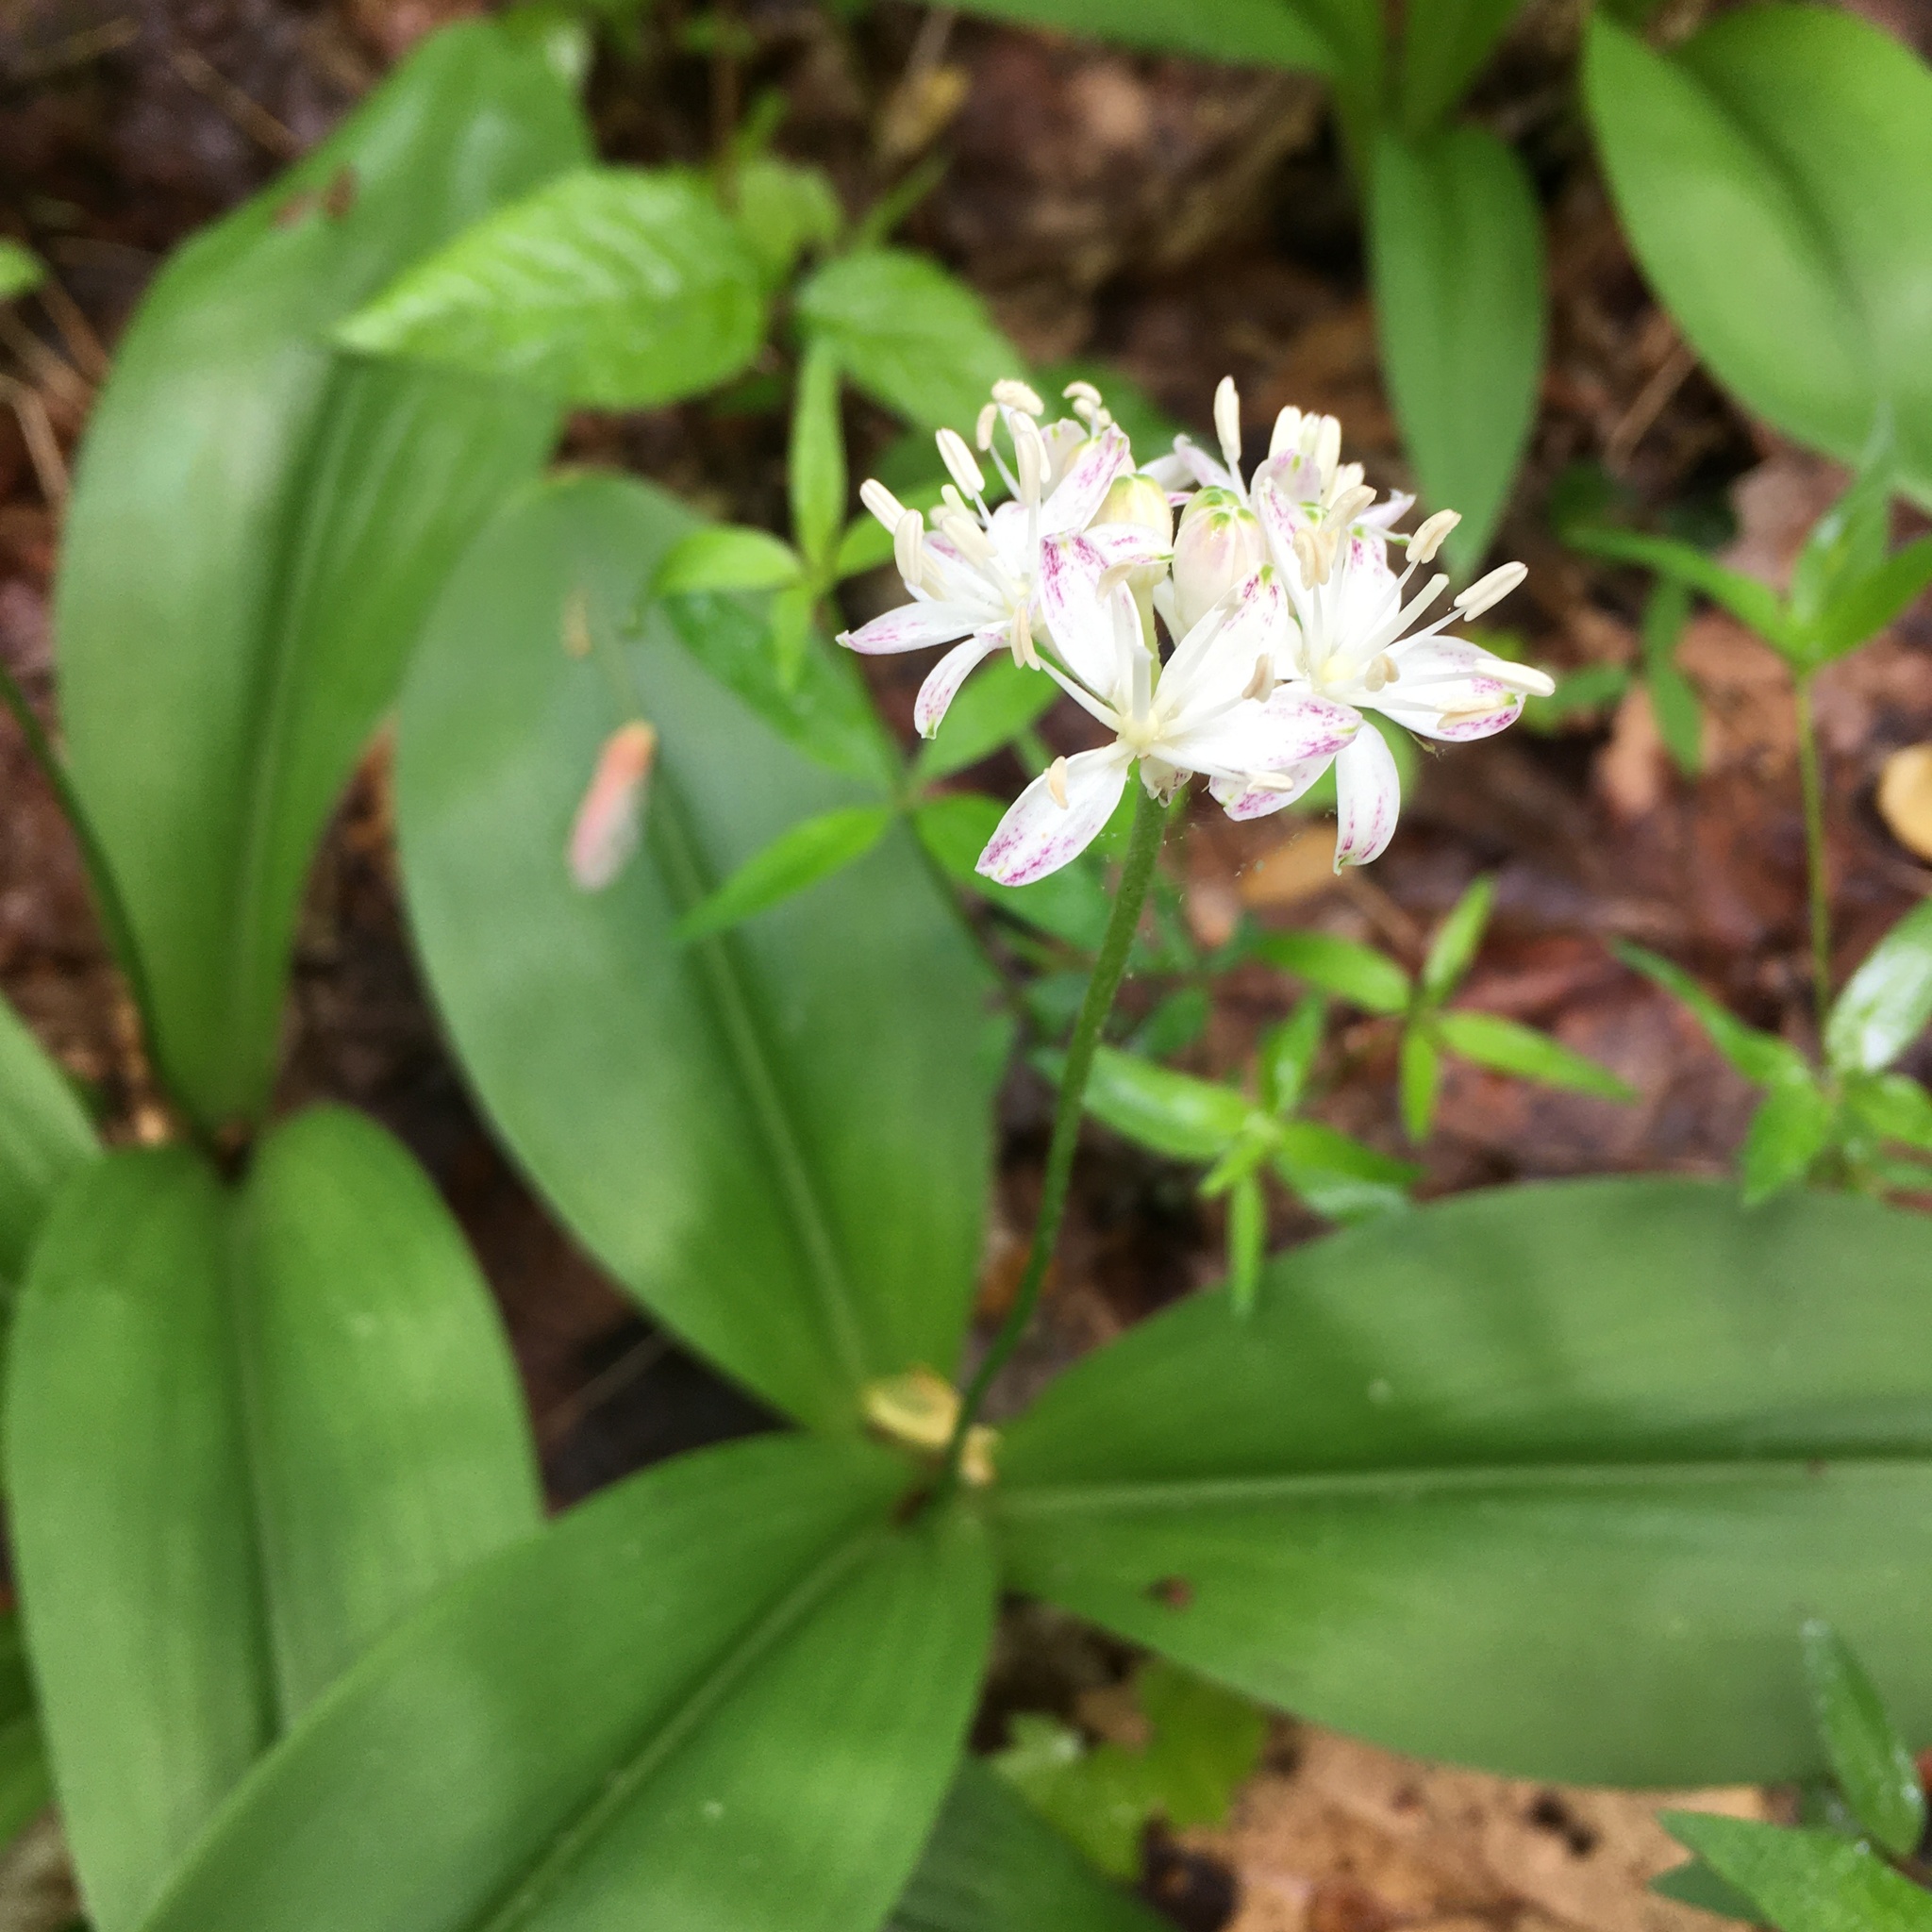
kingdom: Plantae
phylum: Tracheophyta
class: Liliopsida
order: Liliales
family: Liliaceae
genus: Clintonia
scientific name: Clintonia umbellulata
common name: Speckle wood-lily
